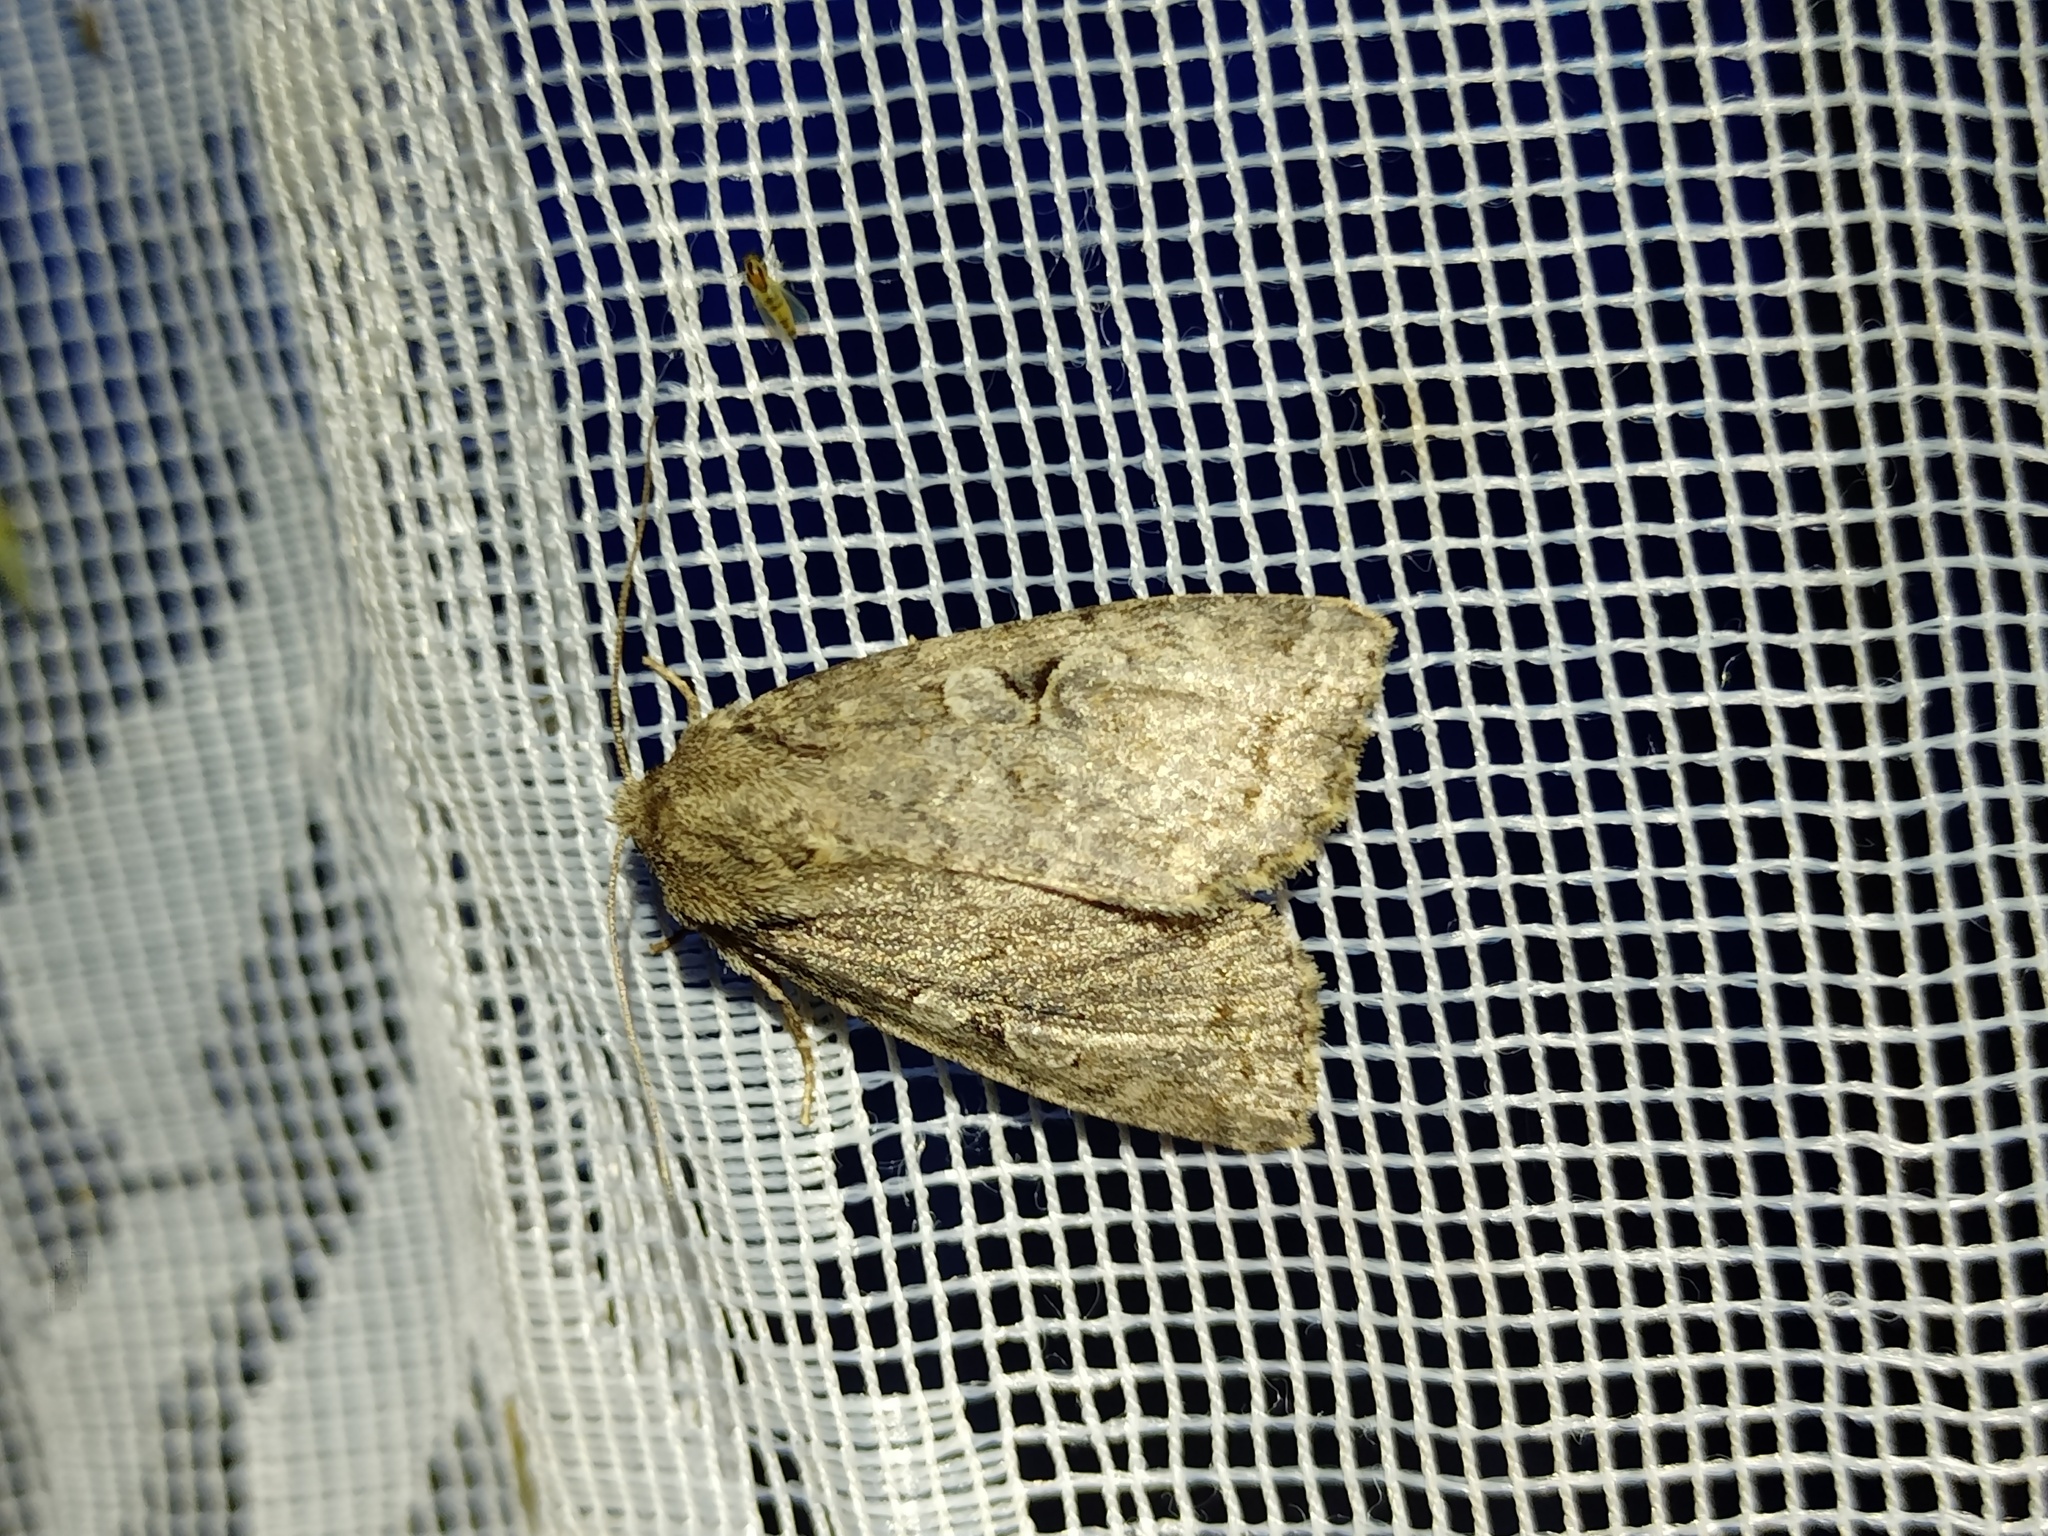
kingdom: Animalia
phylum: Arthropoda
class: Insecta
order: Lepidoptera
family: Noctuidae
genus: Apterogenum
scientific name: Apterogenum ypsillon
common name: Dingy shears
